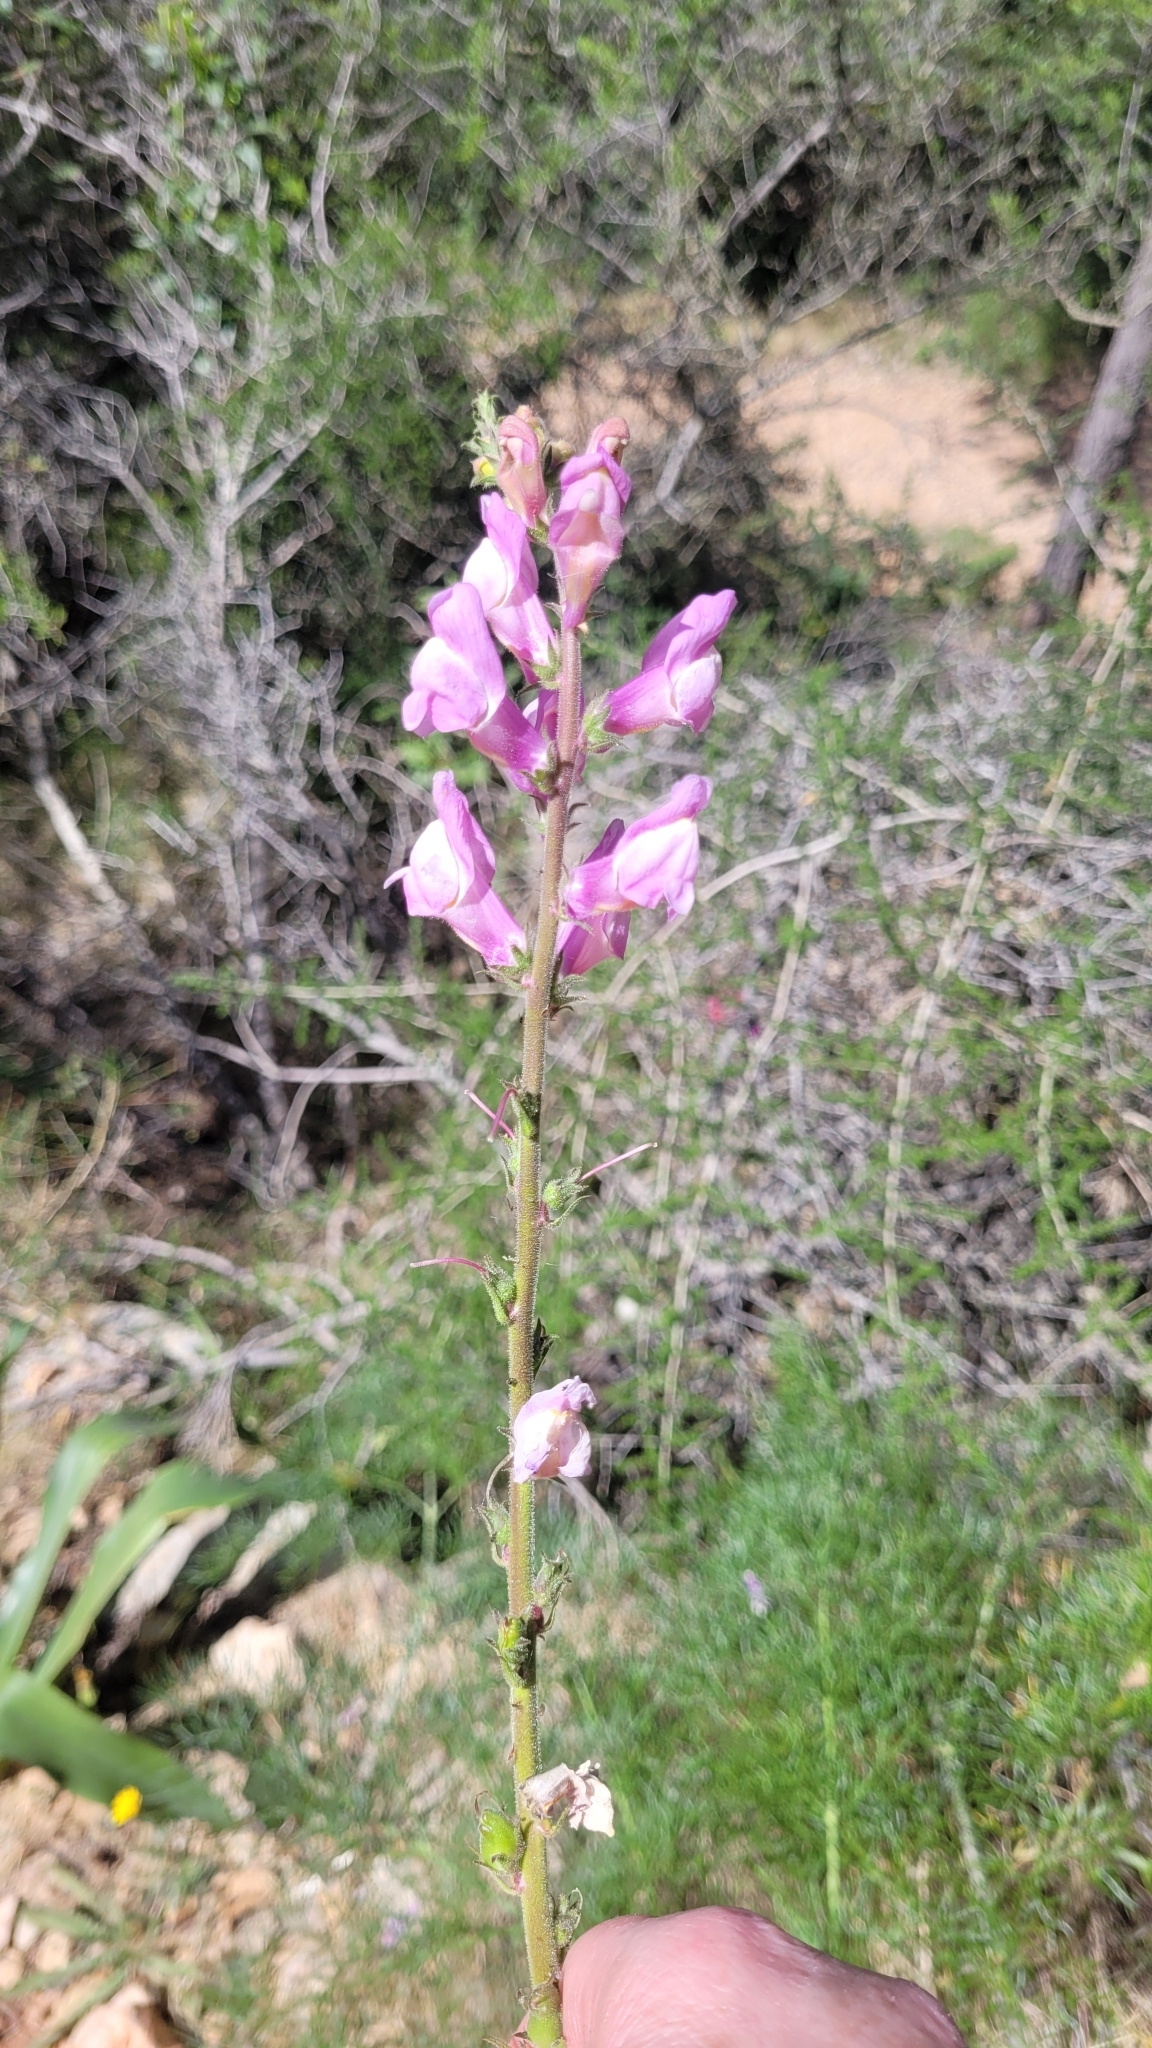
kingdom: Plantae
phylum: Tracheophyta
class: Magnoliopsida
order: Lamiales
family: Plantaginaceae
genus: Antirrhinum
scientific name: Antirrhinum controversum
